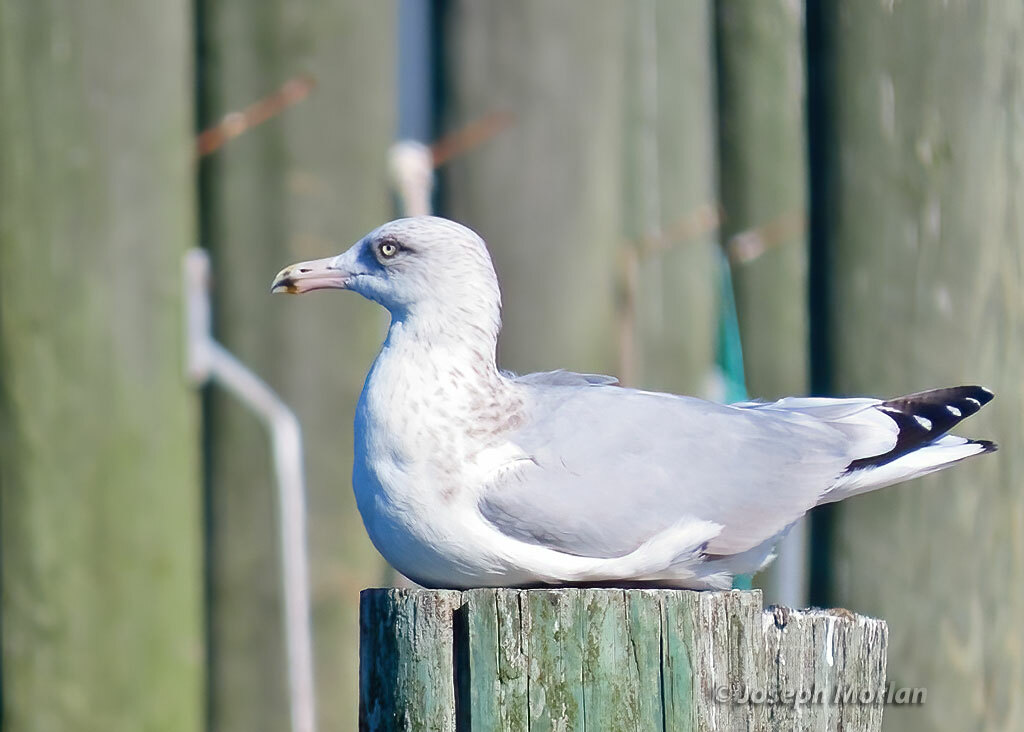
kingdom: Animalia
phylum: Chordata
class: Aves
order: Charadriiformes
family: Laridae
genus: Larus
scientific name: Larus argentatus
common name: Herring gull
